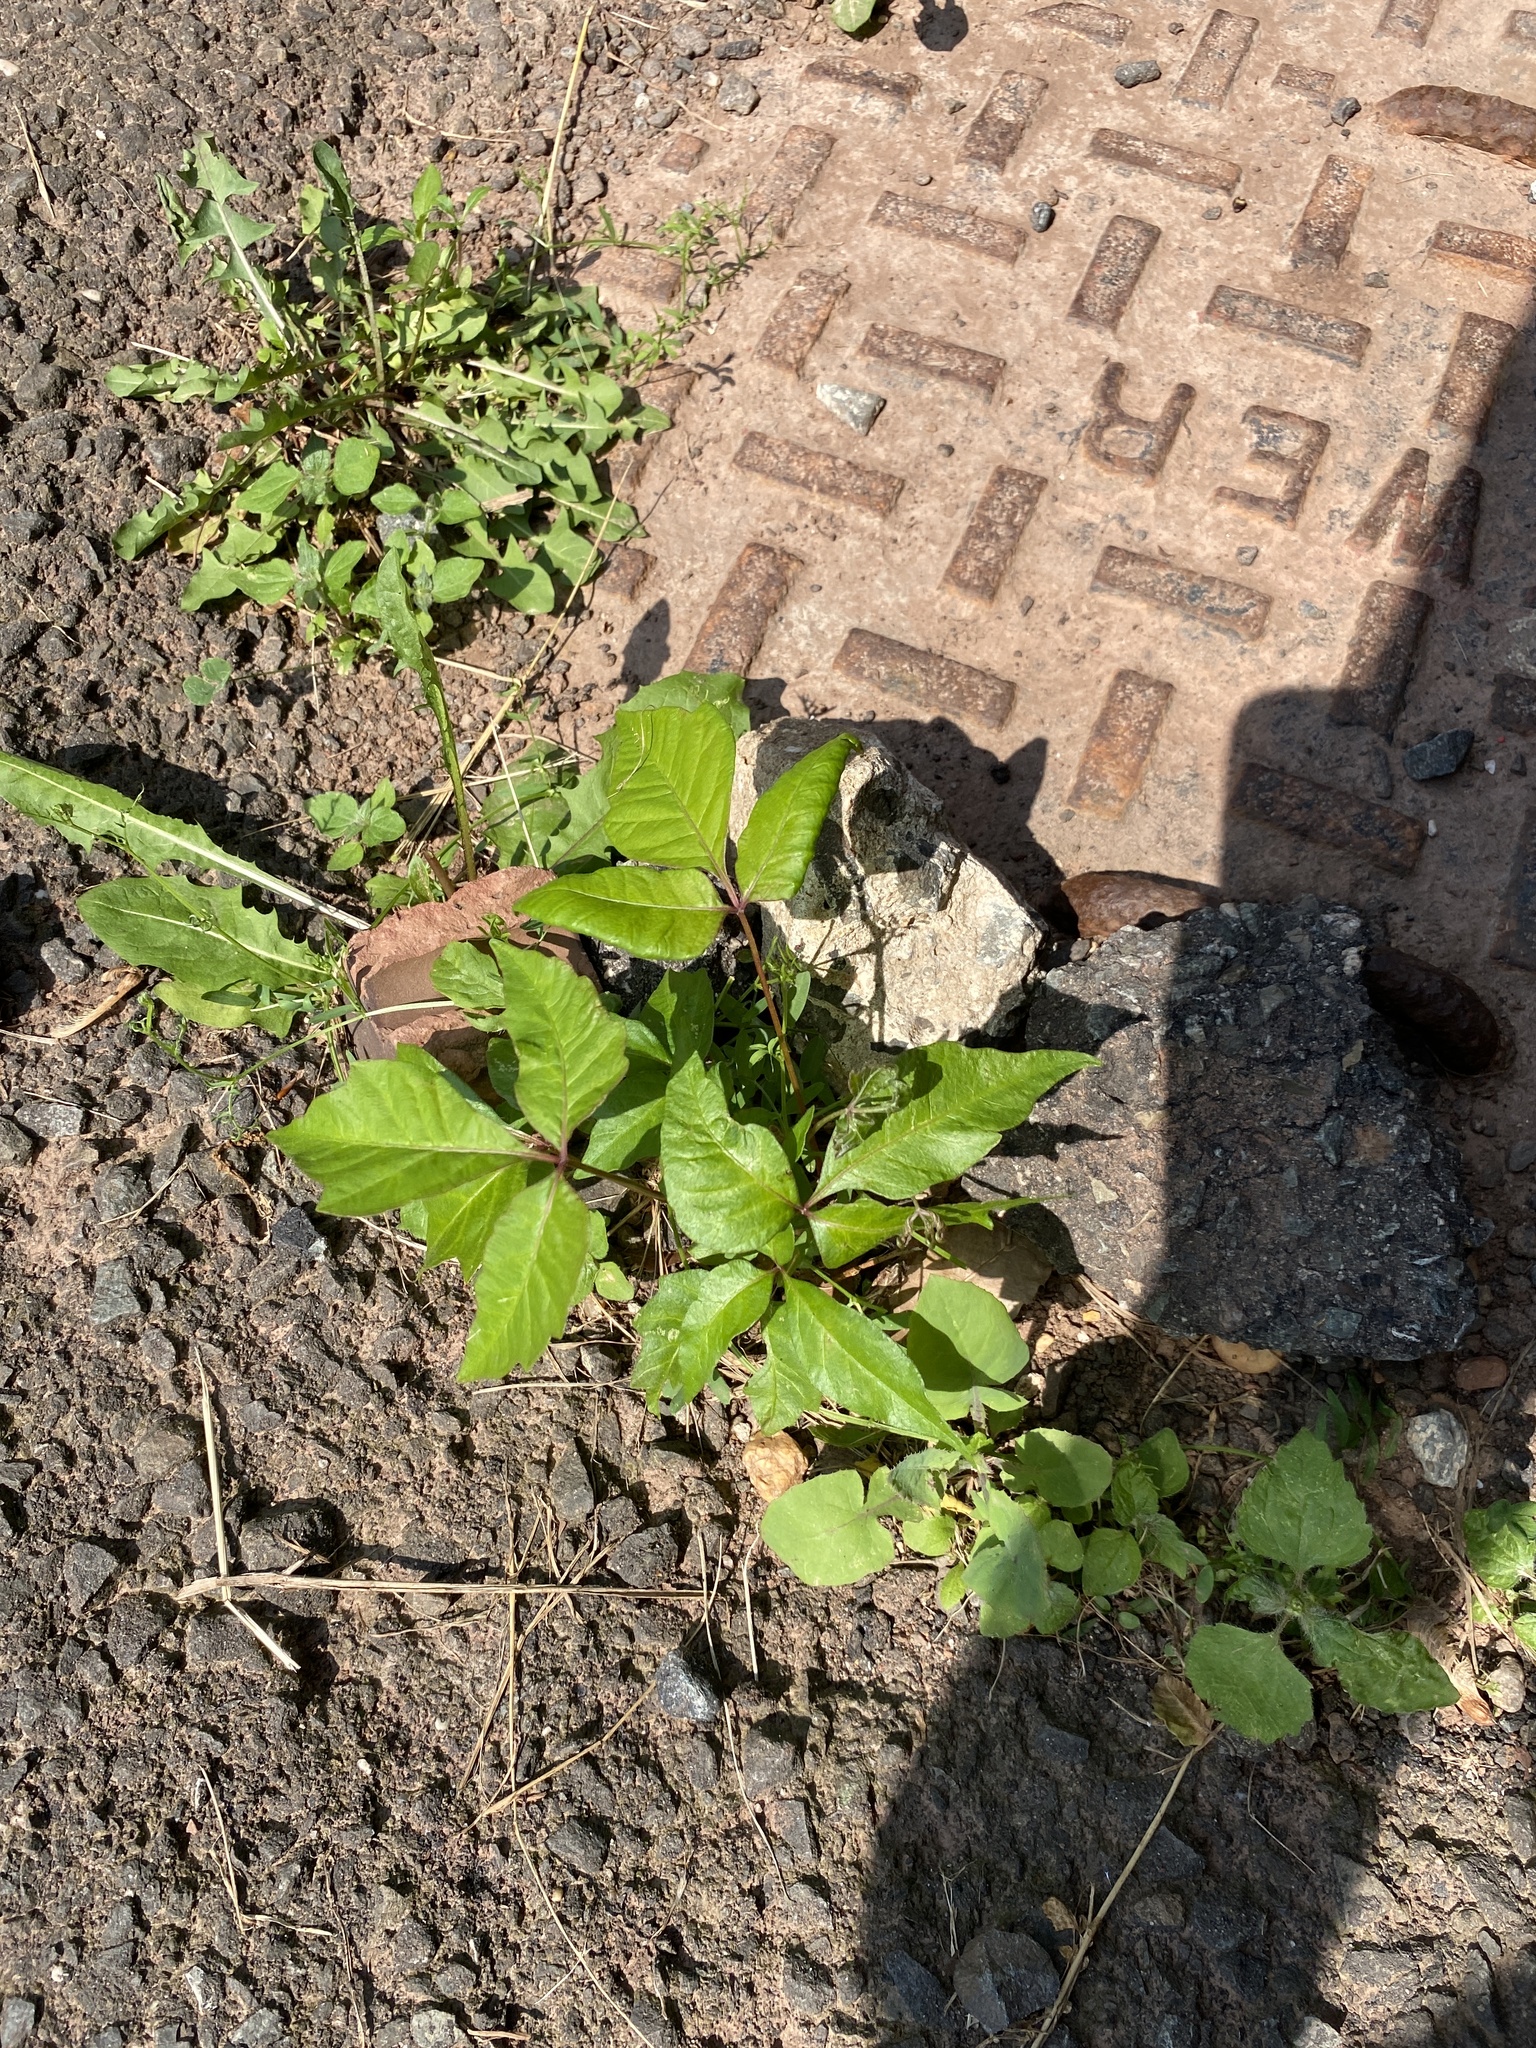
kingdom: Plantae
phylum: Tracheophyta
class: Magnoliopsida
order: Sapindales
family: Anacardiaceae
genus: Toxicodendron
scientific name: Toxicodendron radicans
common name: Poison ivy
